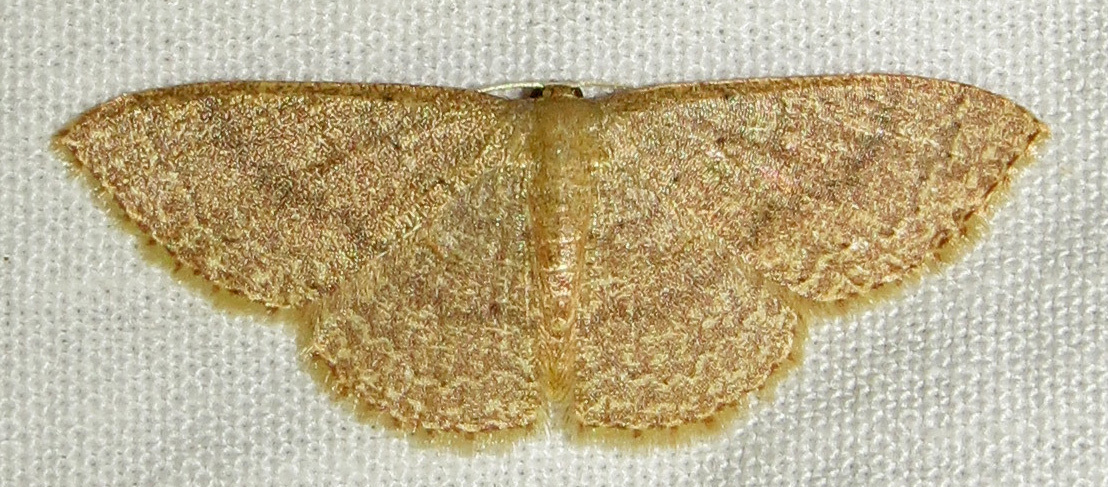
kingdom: Animalia
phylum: Arthropoda
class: Insecta
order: Lepidoptera
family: Geometridae
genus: Pleuroprucha
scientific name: Pleuroprucha insulsaria
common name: Common tan wave
